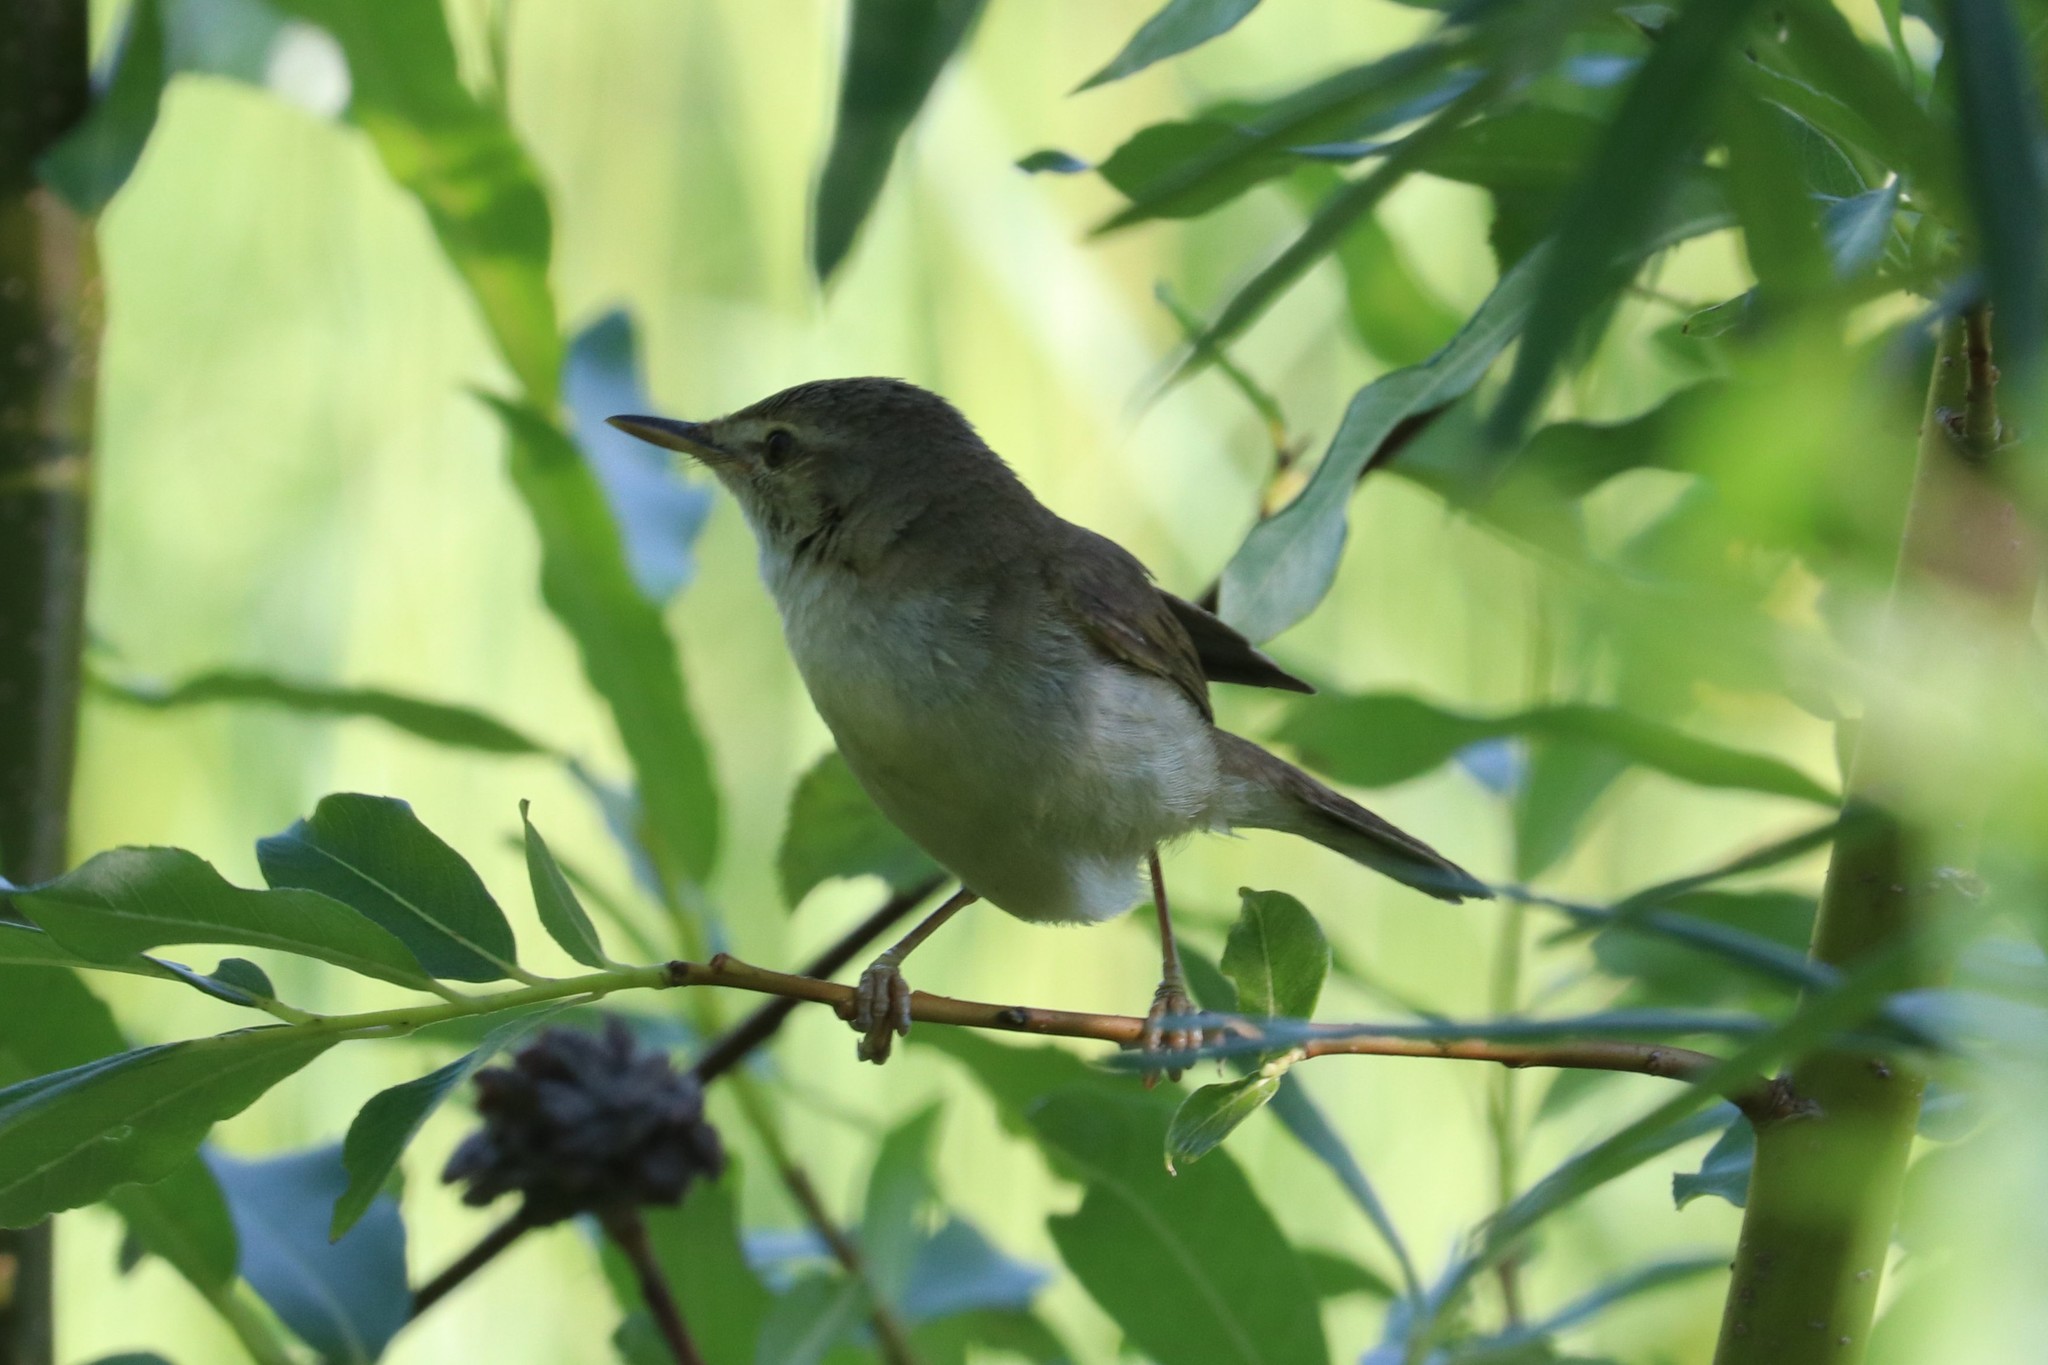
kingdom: Animalia
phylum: Chordata
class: Aves
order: Passeriformes
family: Acrocephalidae
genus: Acrocephalus
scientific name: Acrocephalus dumetorum
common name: Blyth's reed warbler
